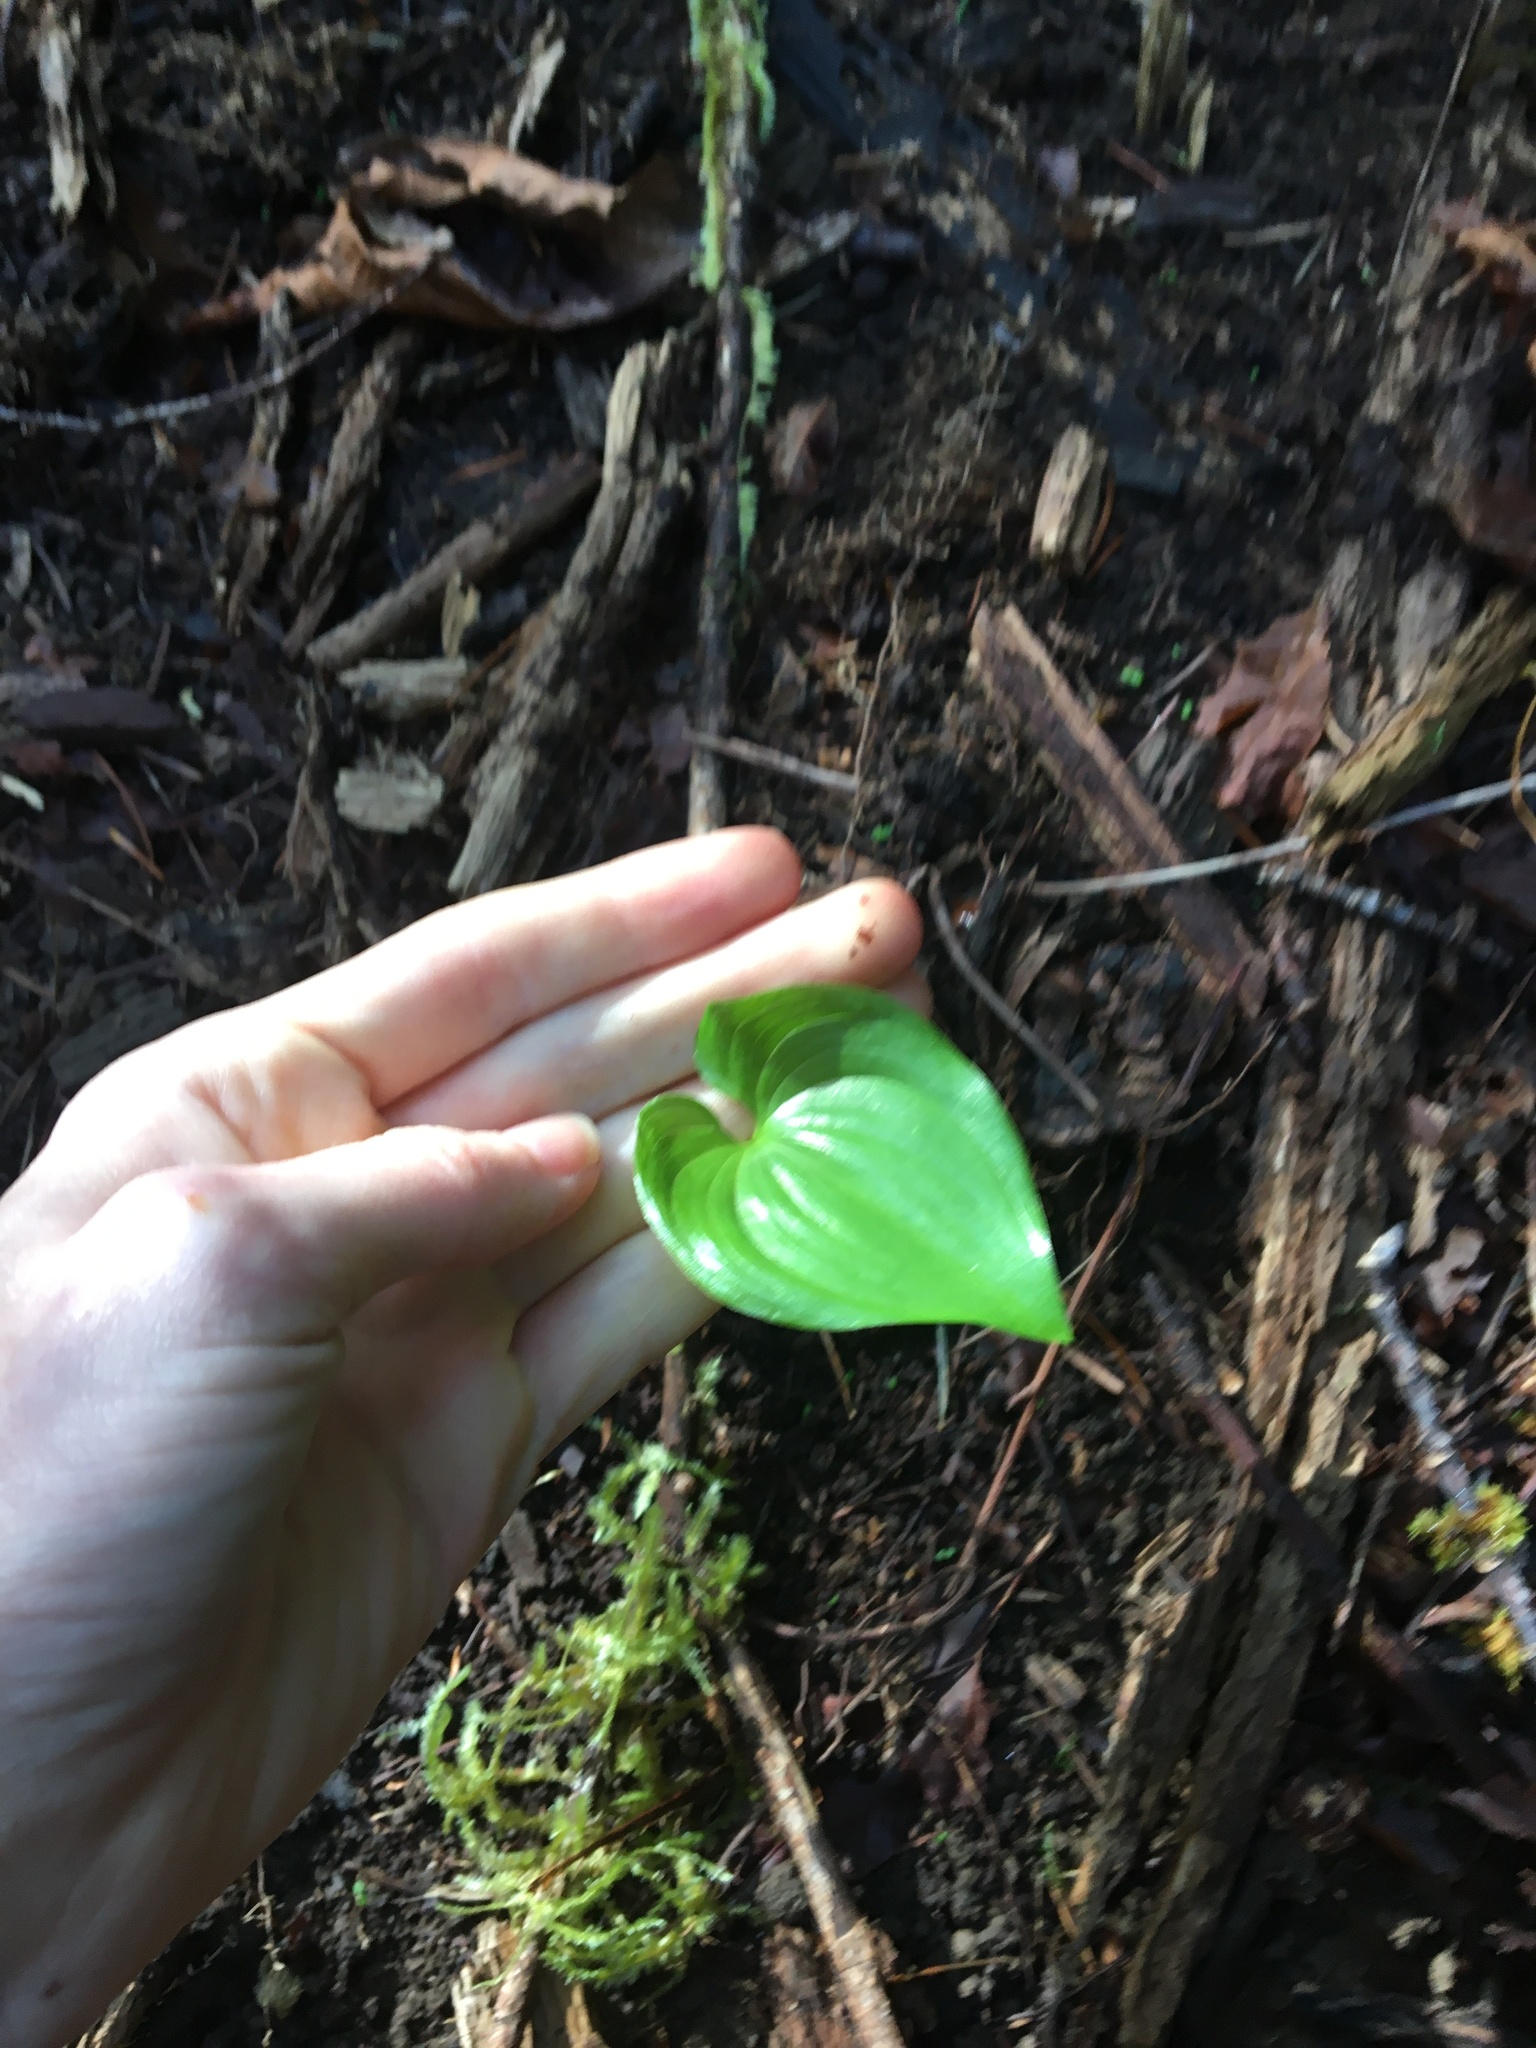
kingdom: Plantae
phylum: Tracheophyta
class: Liliopsida
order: Asparagales
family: Asparagaceae
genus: Maianthemum
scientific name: Maianthemum dilatatum
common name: False lily-of-the-valley
